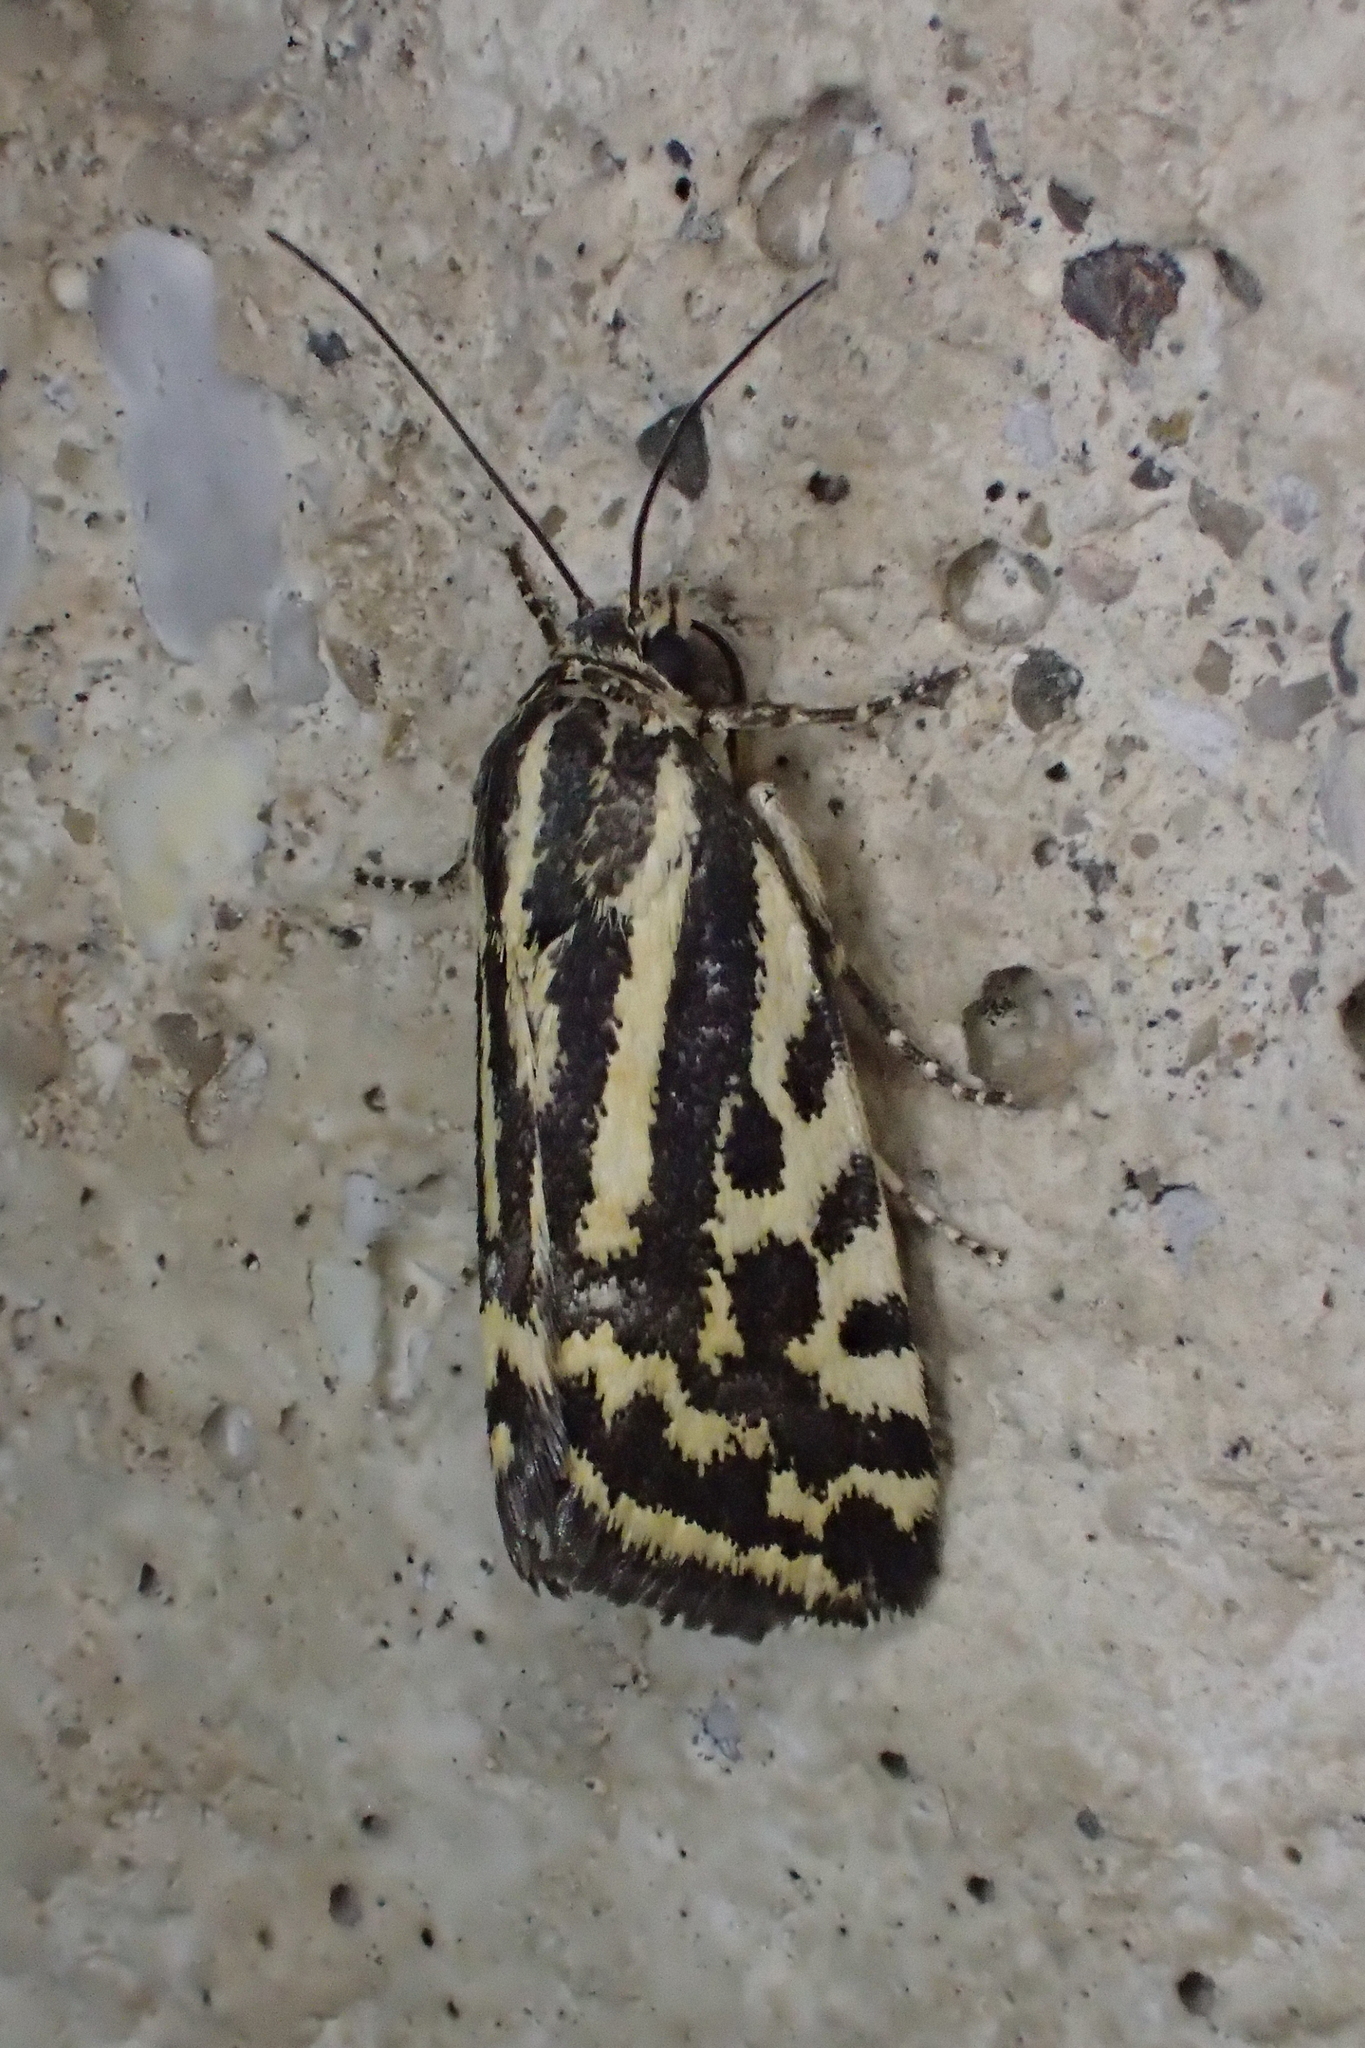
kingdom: Animalia
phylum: Arthropoda
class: Insecta
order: Lepidoptera
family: Noctuidae
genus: Acontia
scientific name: Acontia trabealis
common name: Spotted sulphur
